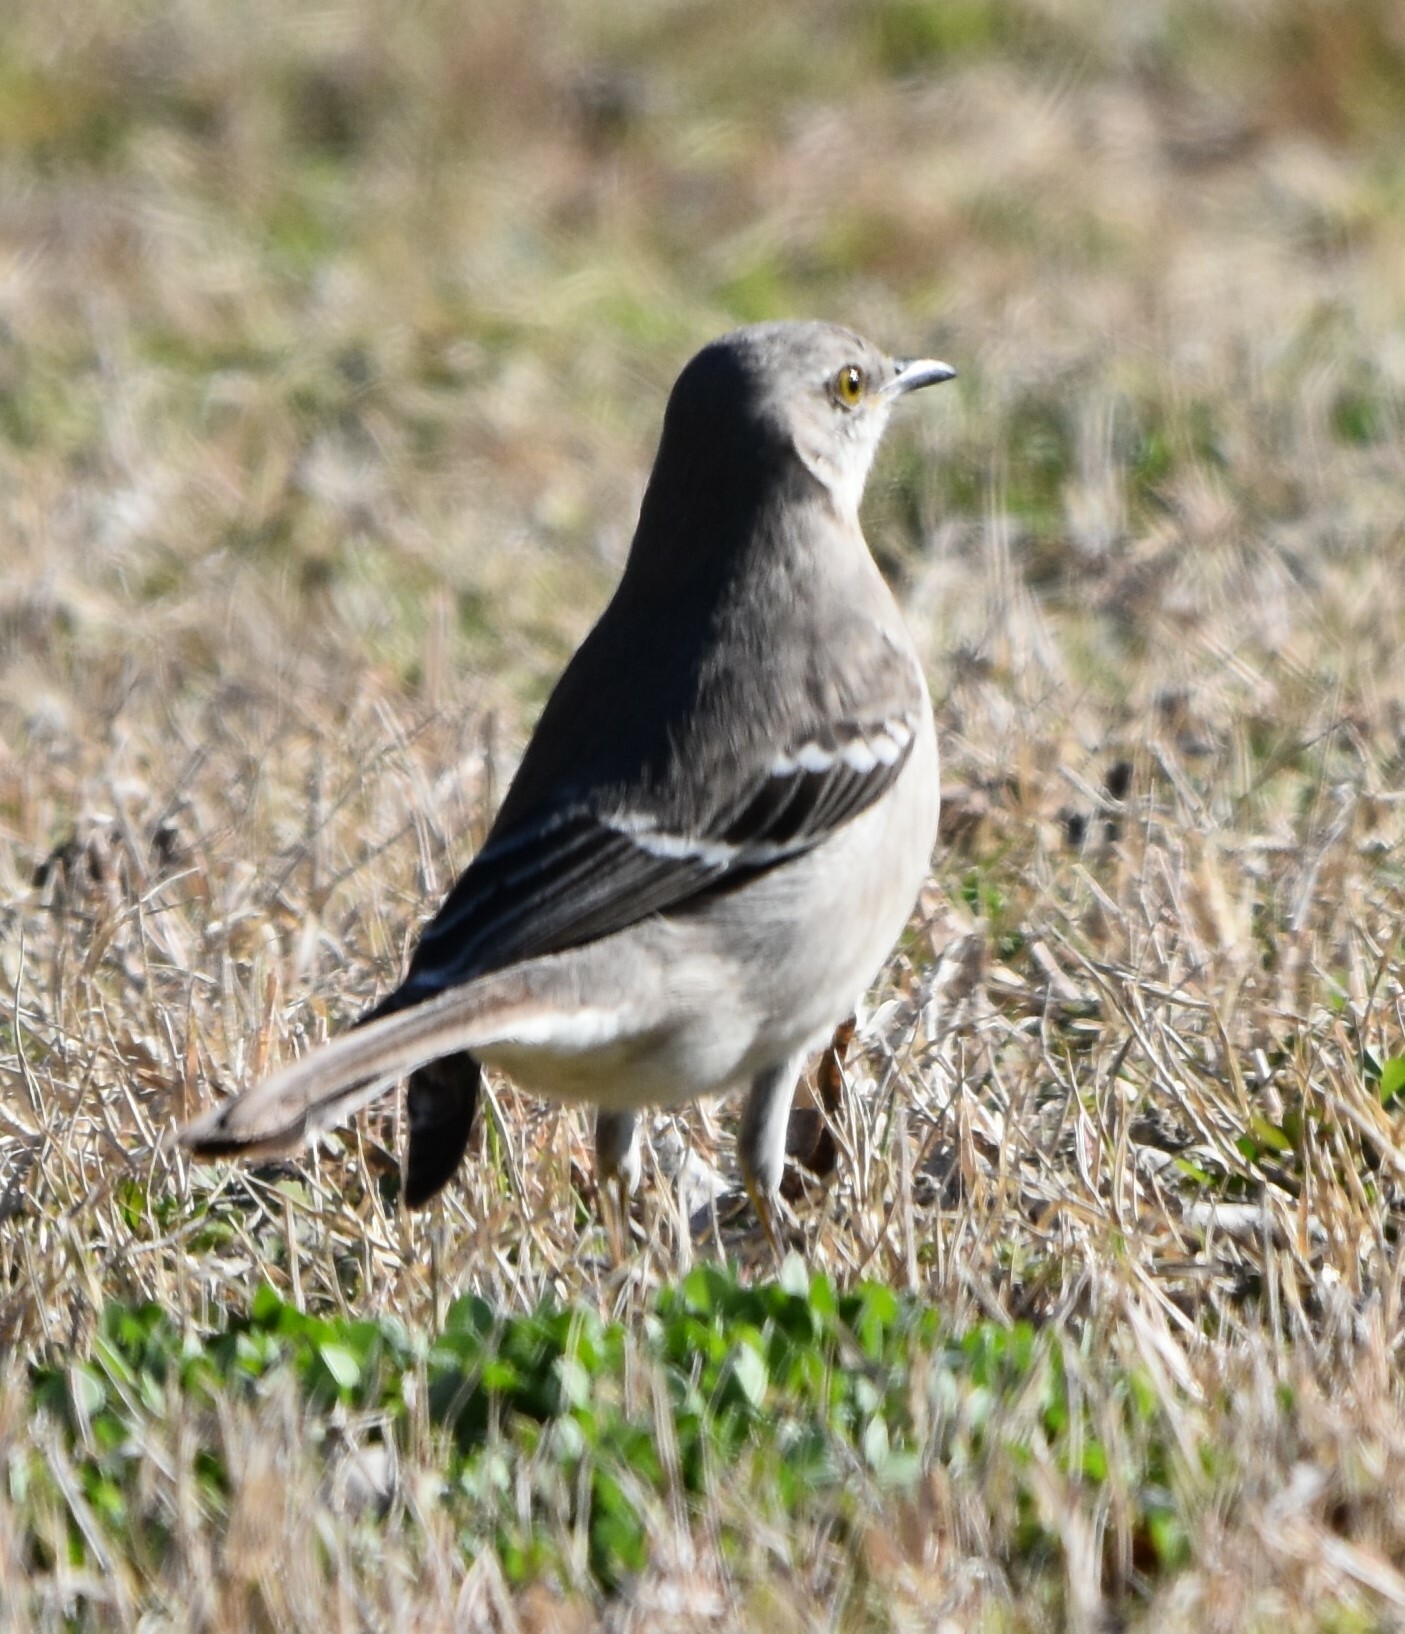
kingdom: Animalia
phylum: Chordata
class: Aves
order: Passeriformes
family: Mimidae
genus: Mimus
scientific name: Mimus polyglottos
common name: Northern mockingbird
